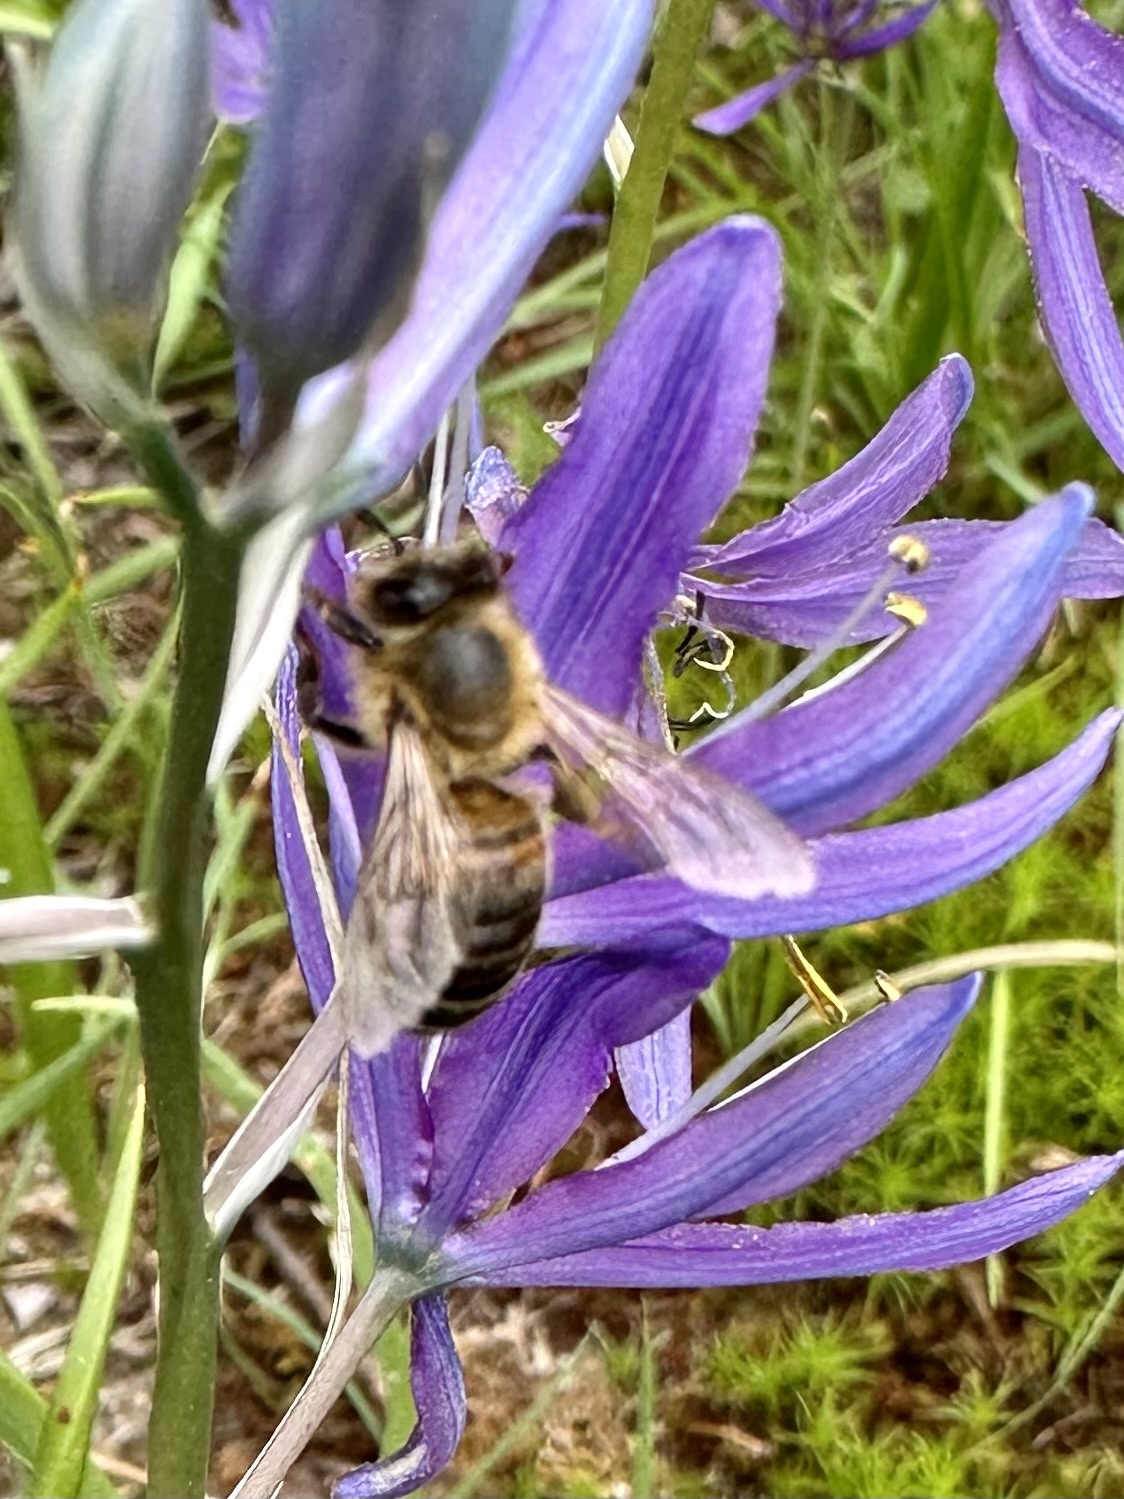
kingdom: Animalia
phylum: Arthropoda
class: Insecta
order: Hymenoptera
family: Apidae
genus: Apis
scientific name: Apis mellifera
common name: Honey bee
